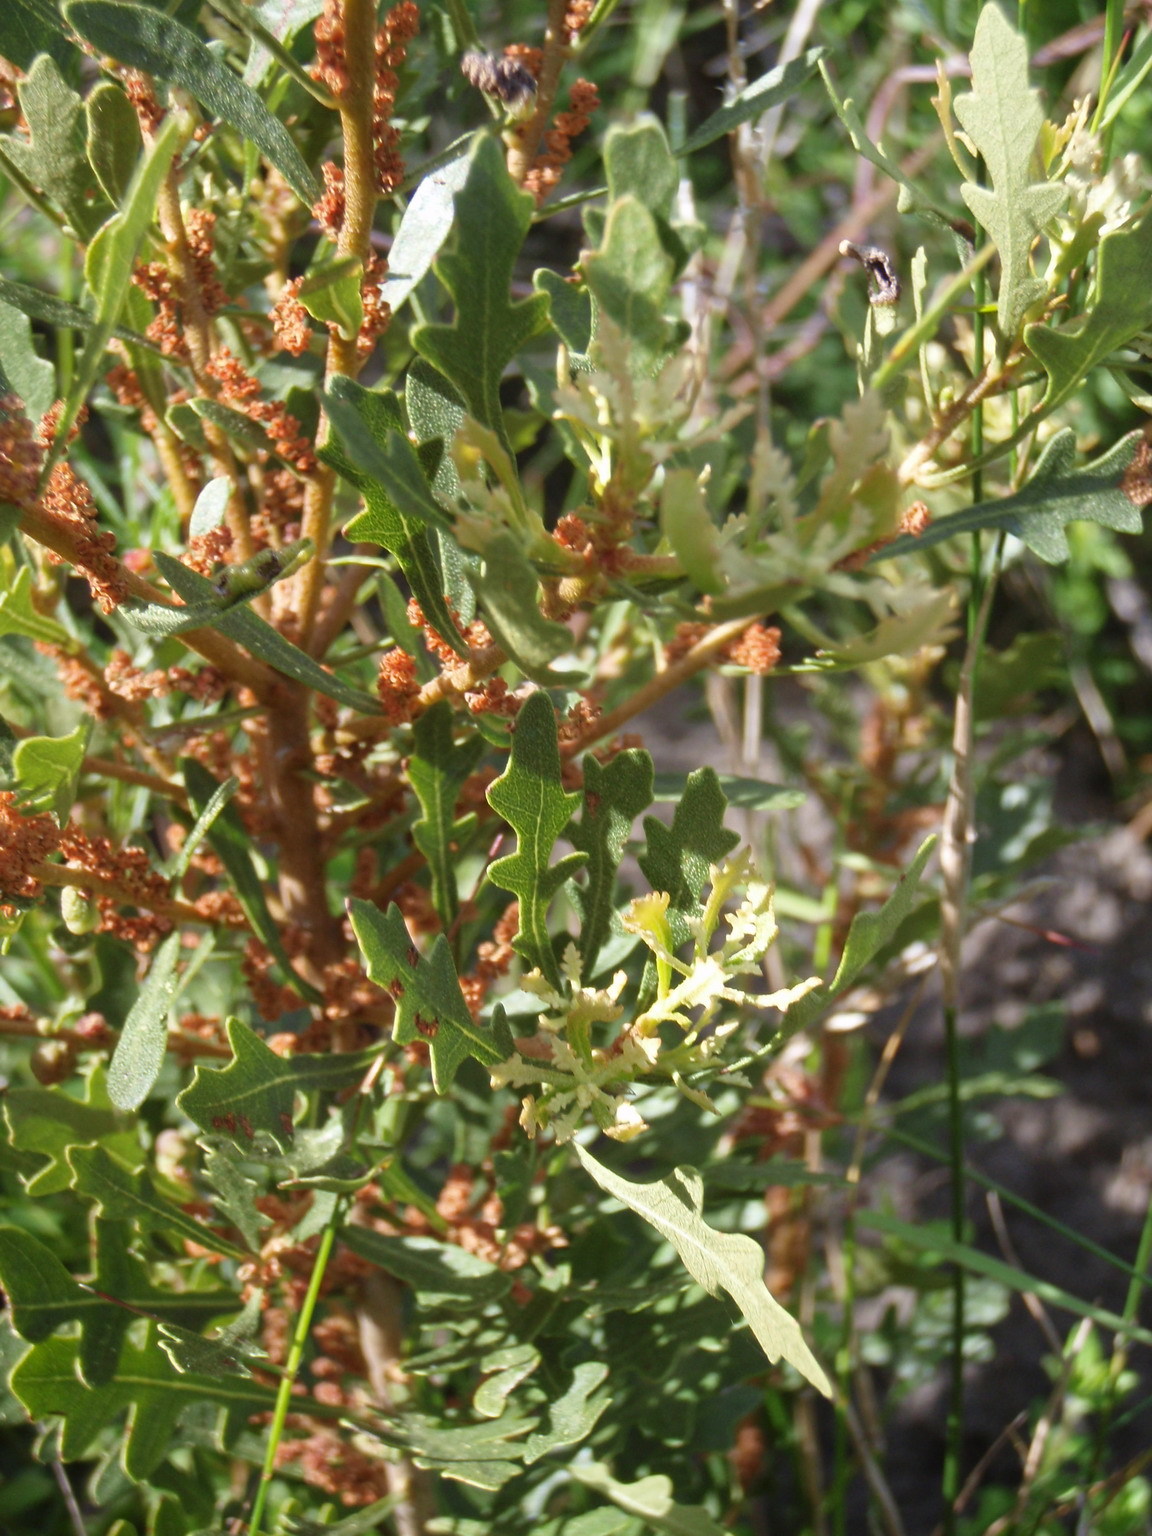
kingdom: Plantae
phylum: Tracheophyta
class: Magnoliopsida
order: Fagales
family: Myricaceae
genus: Morella
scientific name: Morella quercifolia
